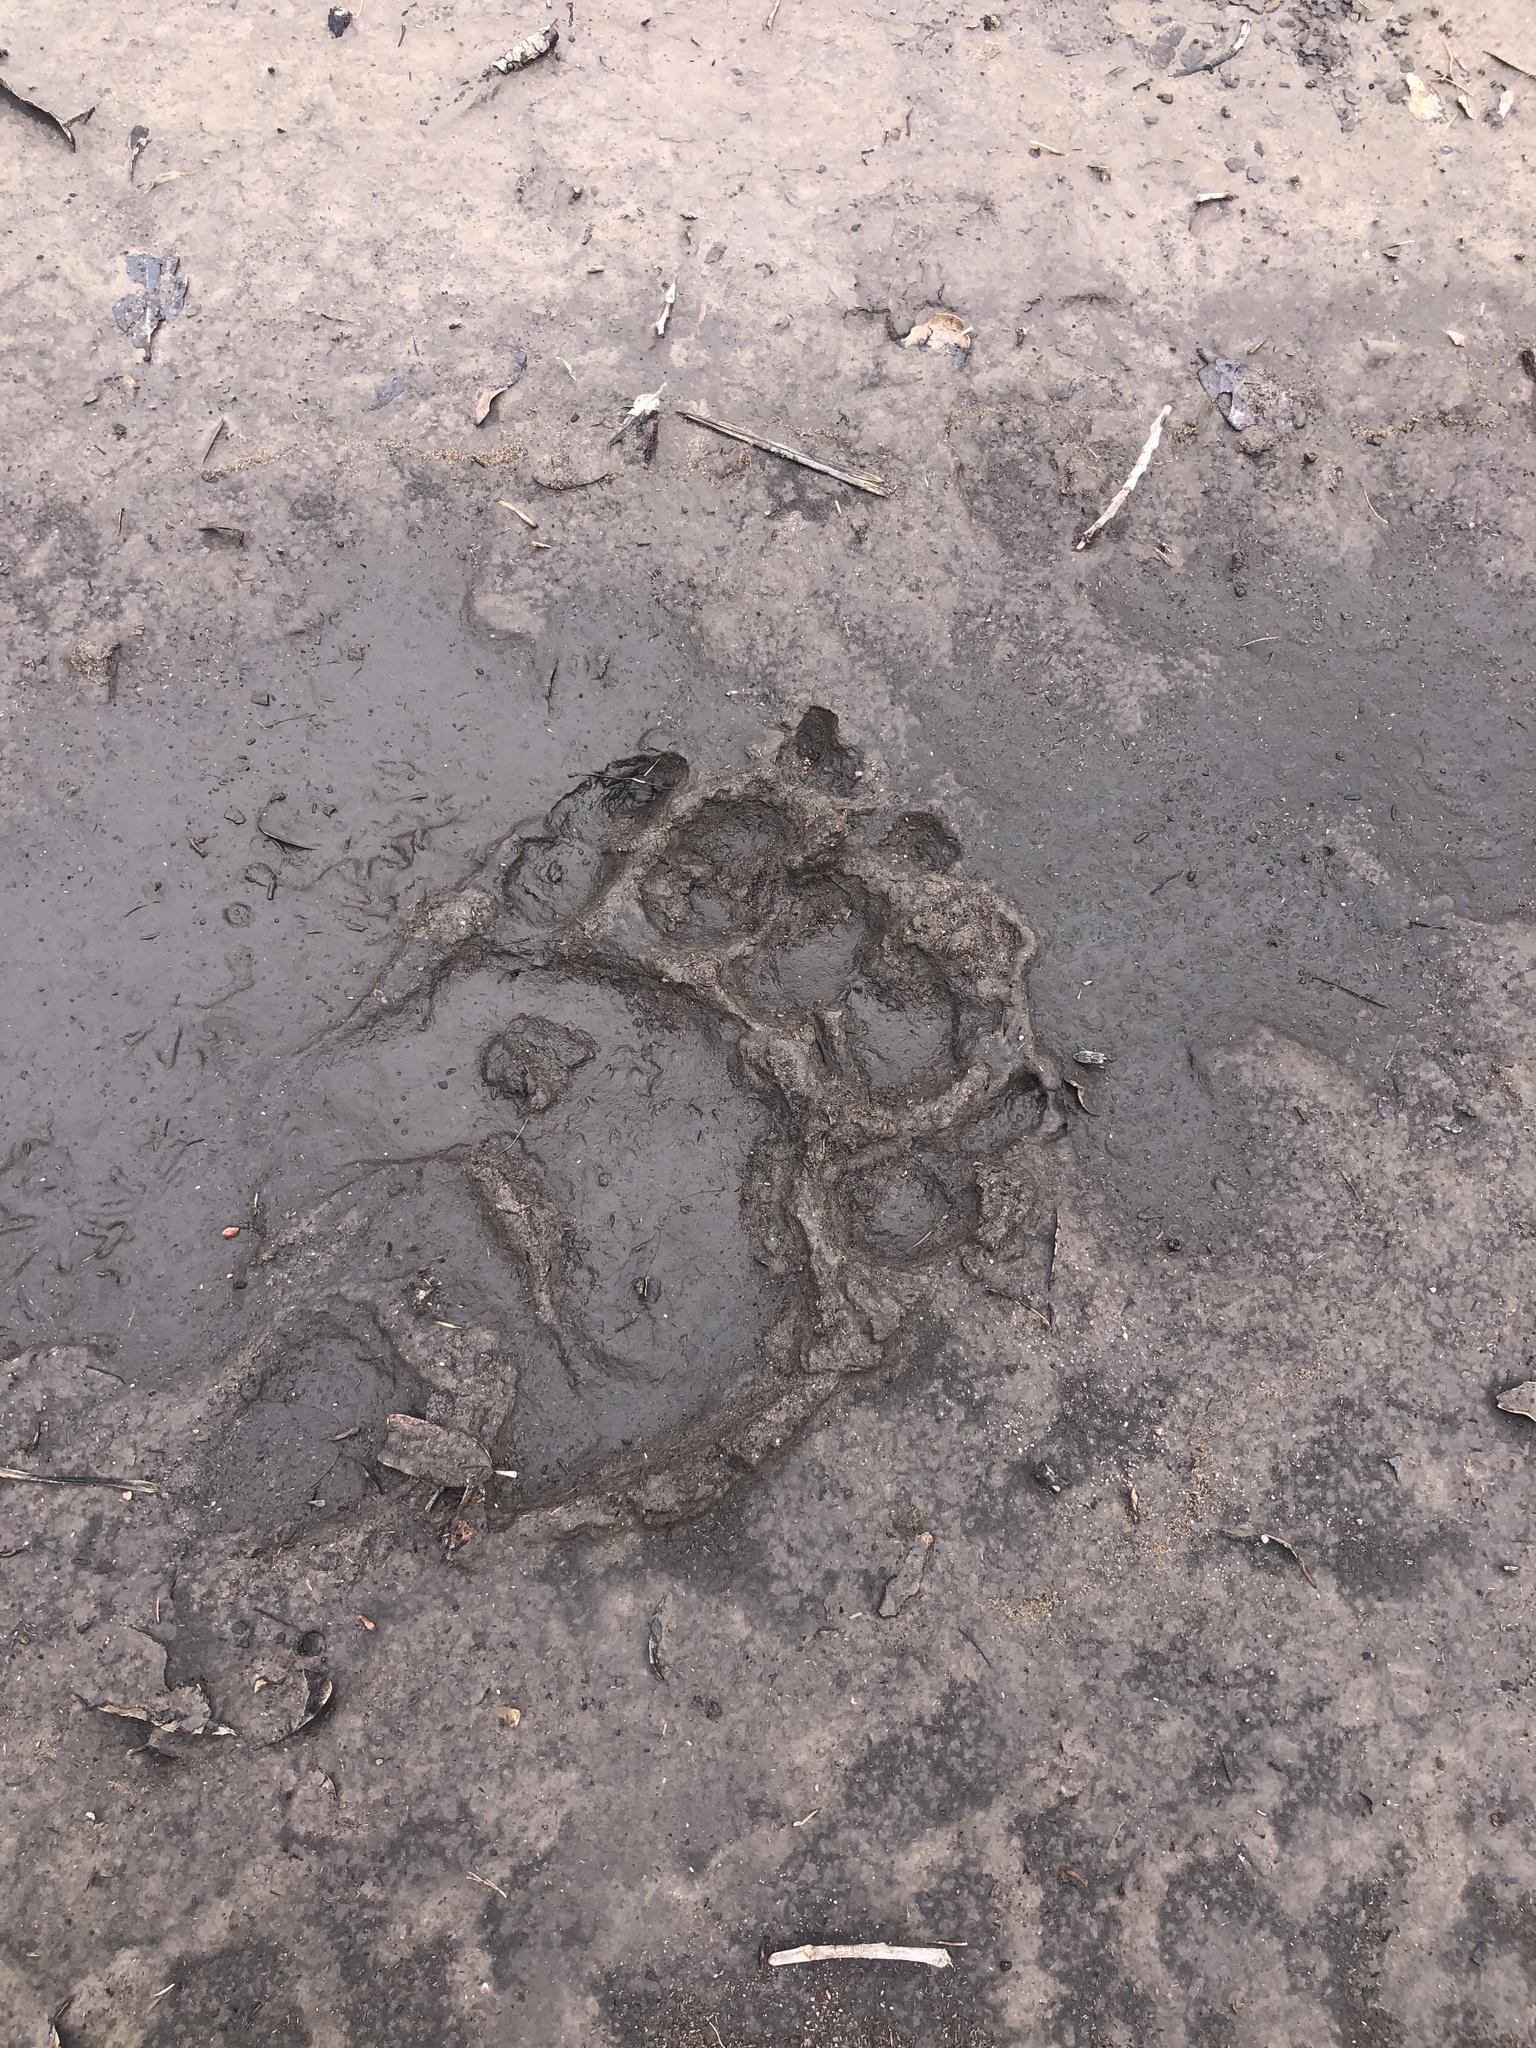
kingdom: Animalia
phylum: Chordata
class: Mammalia
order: Carnivora
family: Ursidae
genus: Ursus
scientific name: Ursus americanus
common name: American black bear
